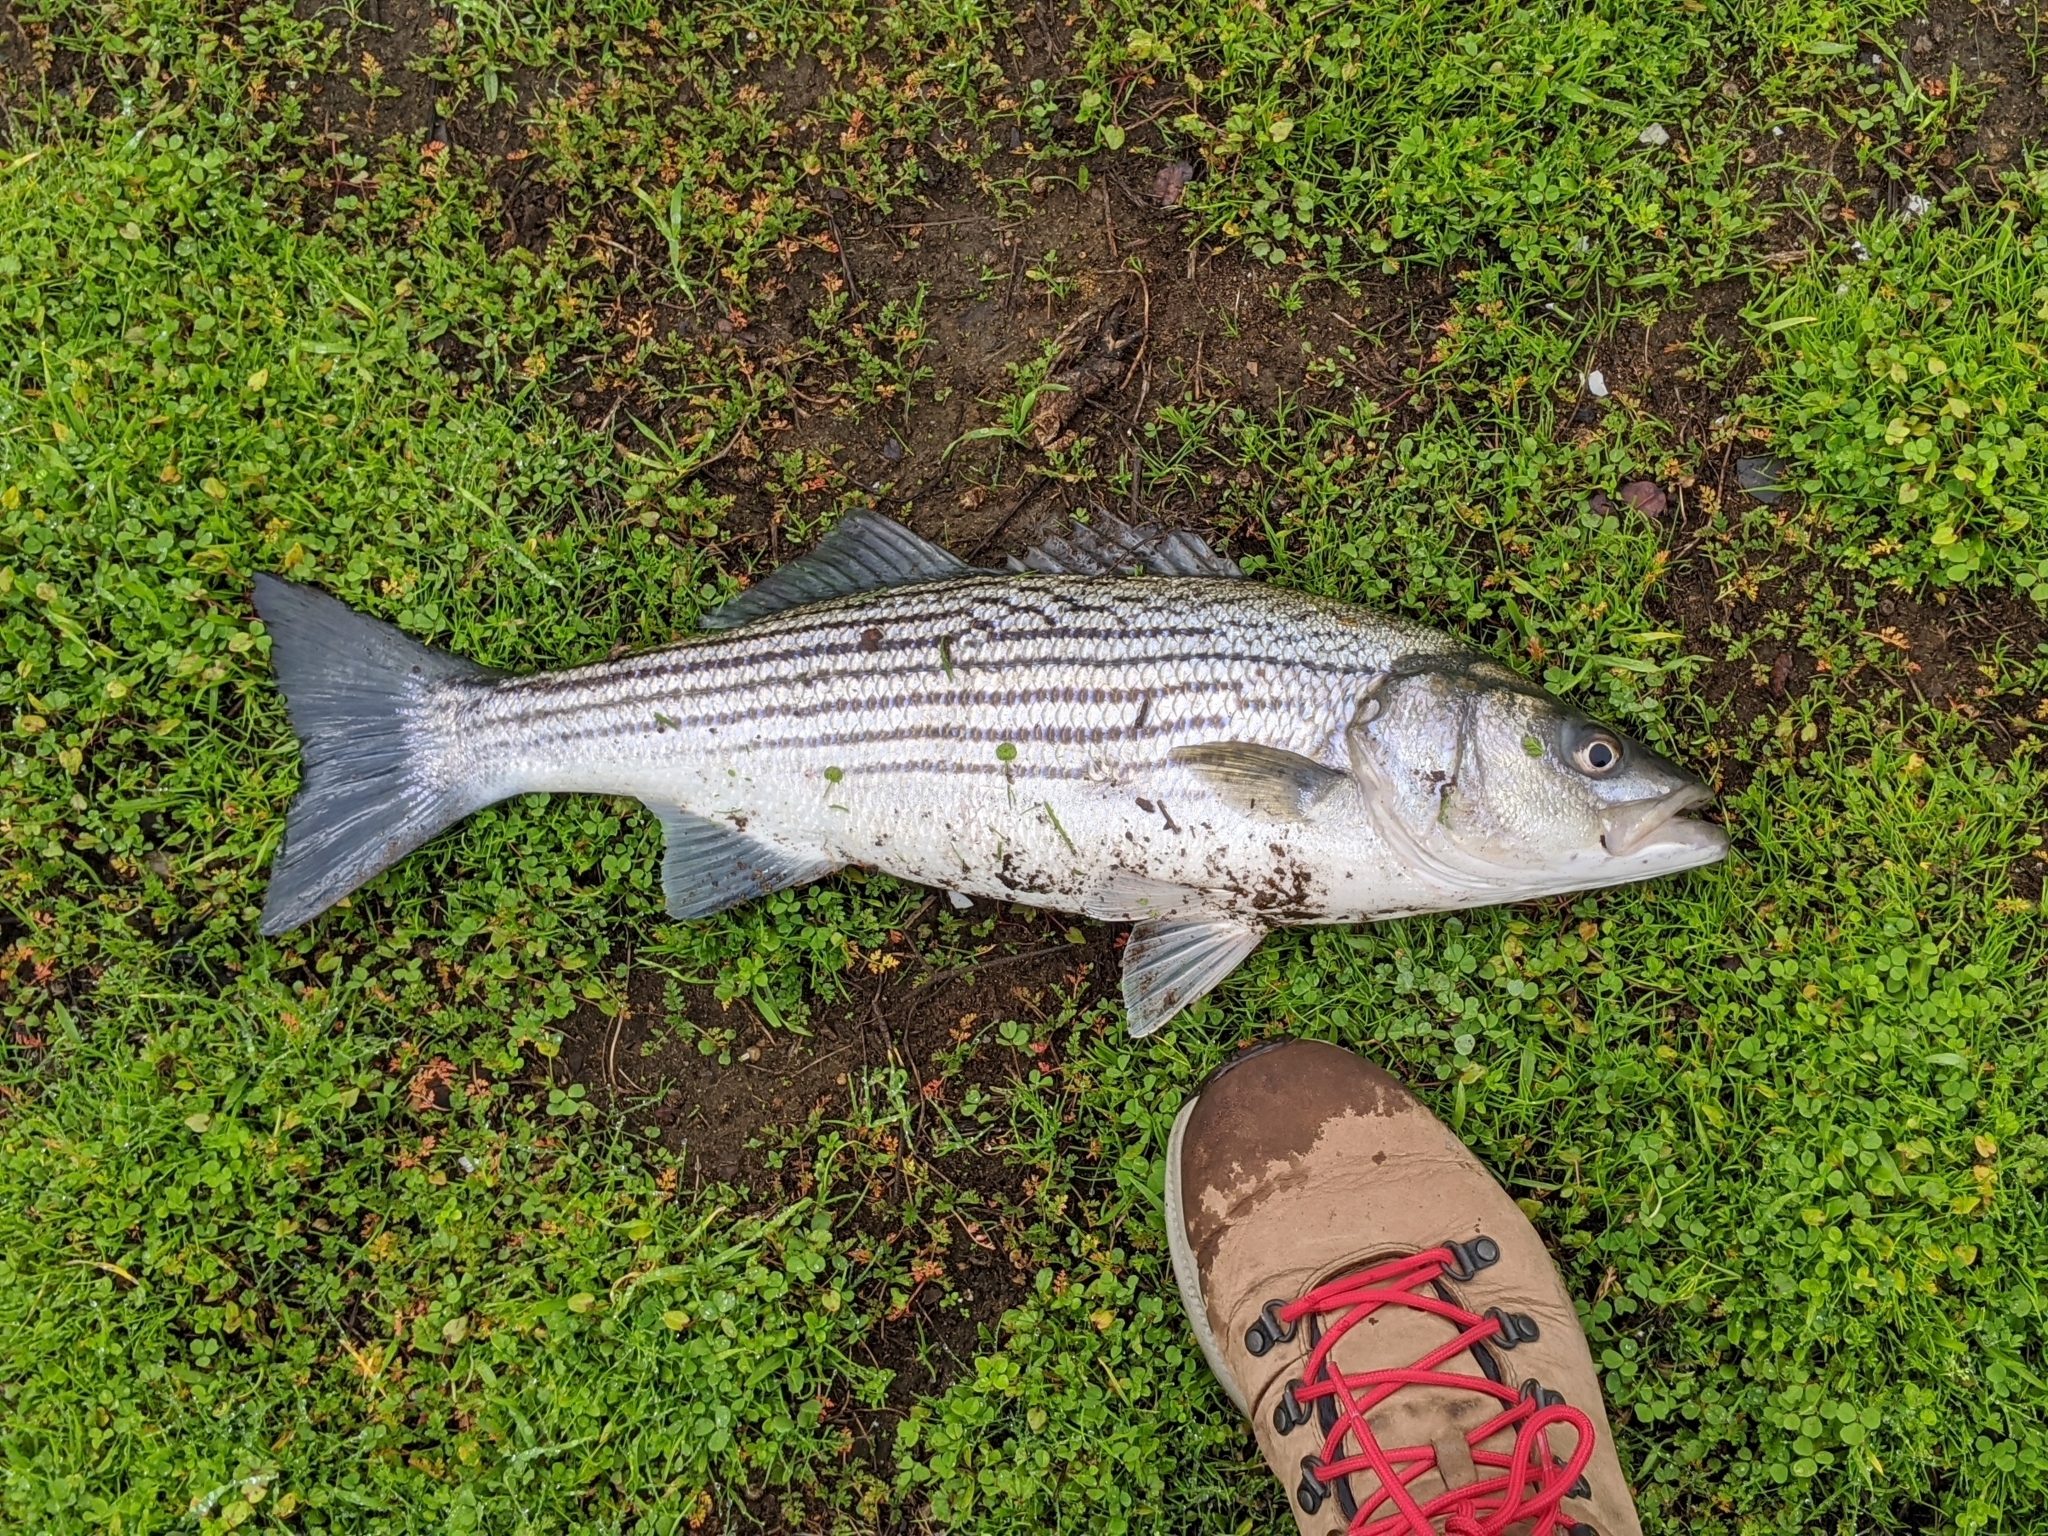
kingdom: Animalia
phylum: Chordata
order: Perciformes
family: Moronidae
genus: Morone
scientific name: Morone saxatilis
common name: Striped bass
